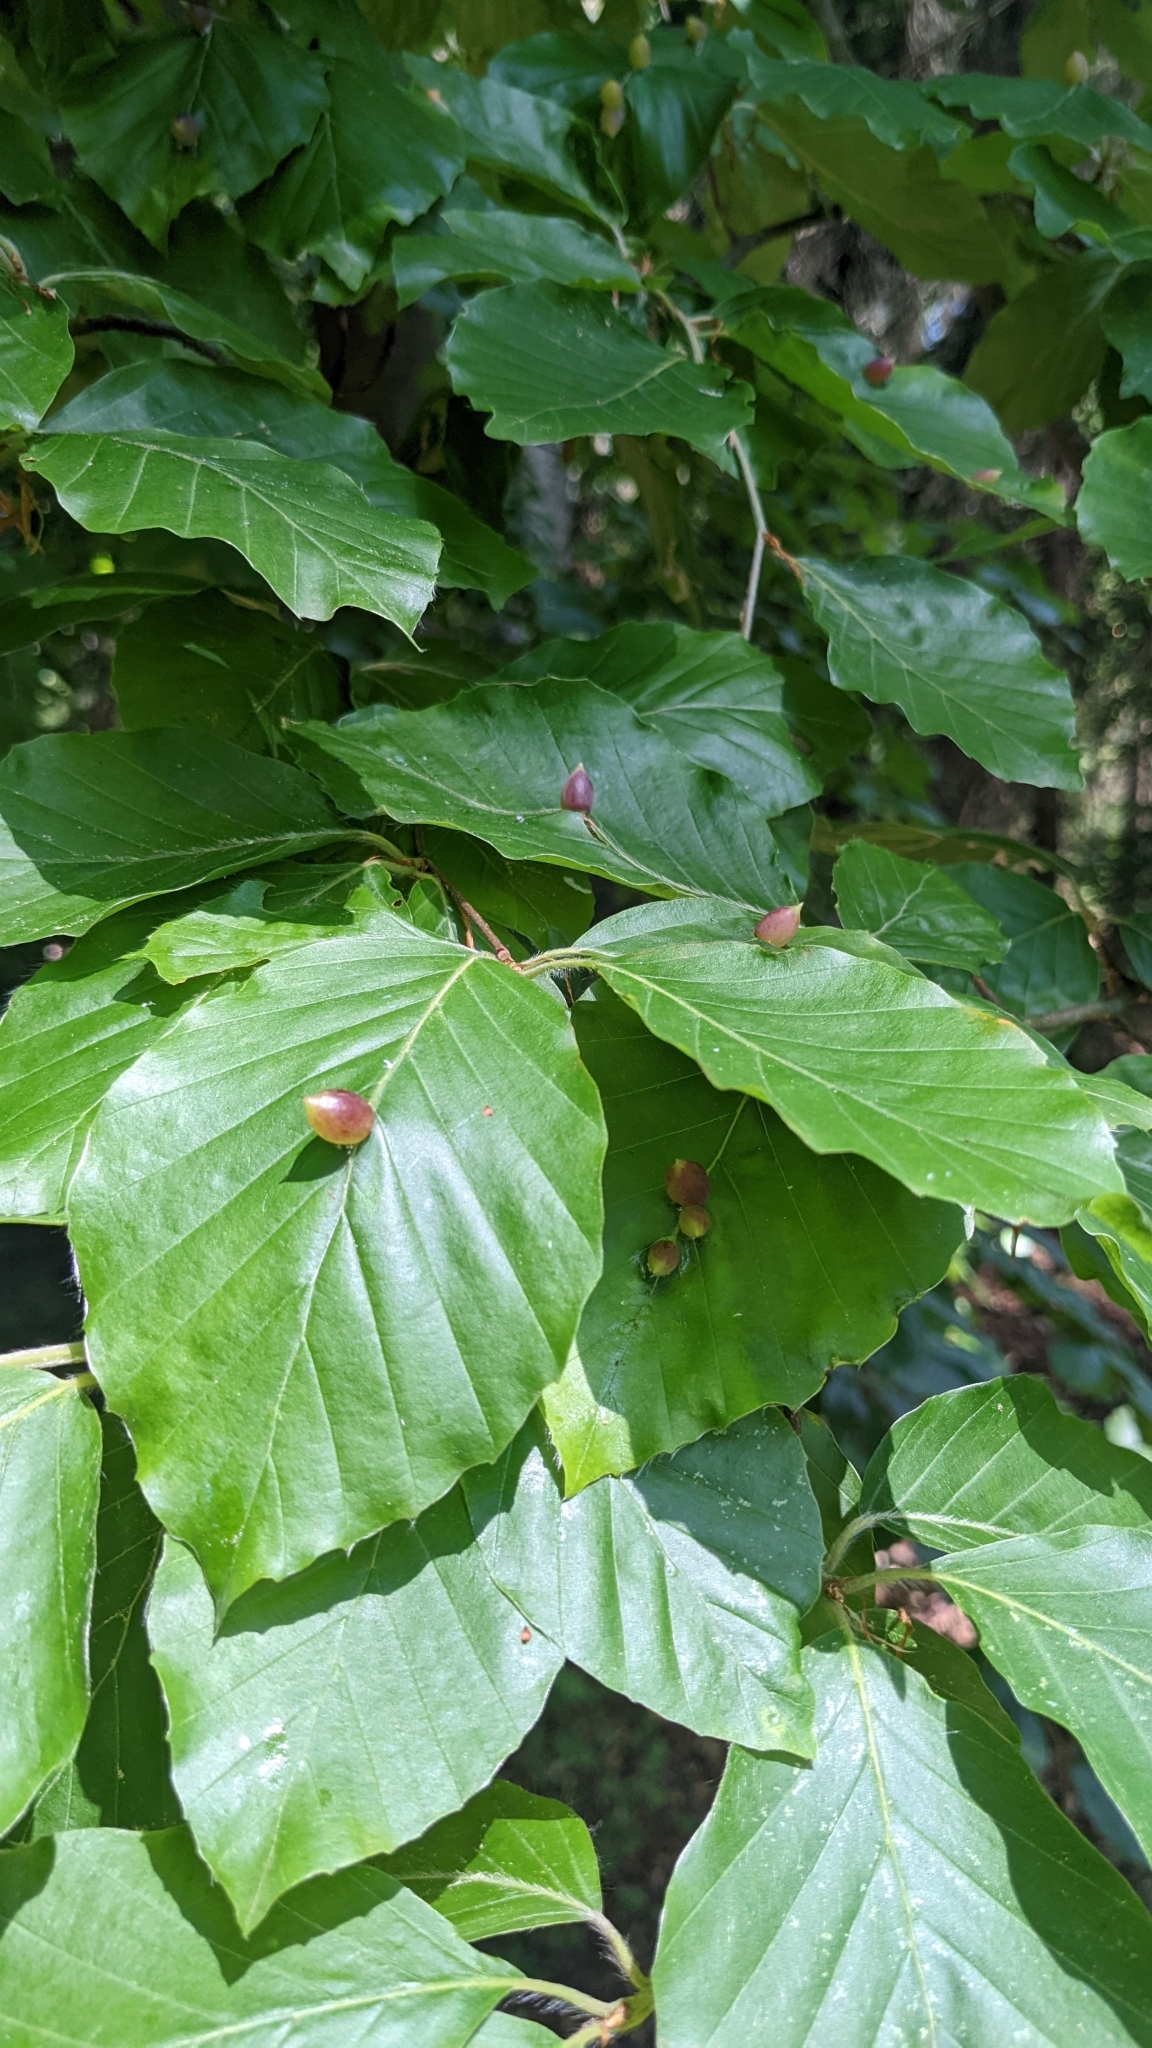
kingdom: Animalia
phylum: Arthropoda
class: Insecta
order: Diptera
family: Cecidomyiidae
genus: Mikiola
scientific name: Mikiola fagi
